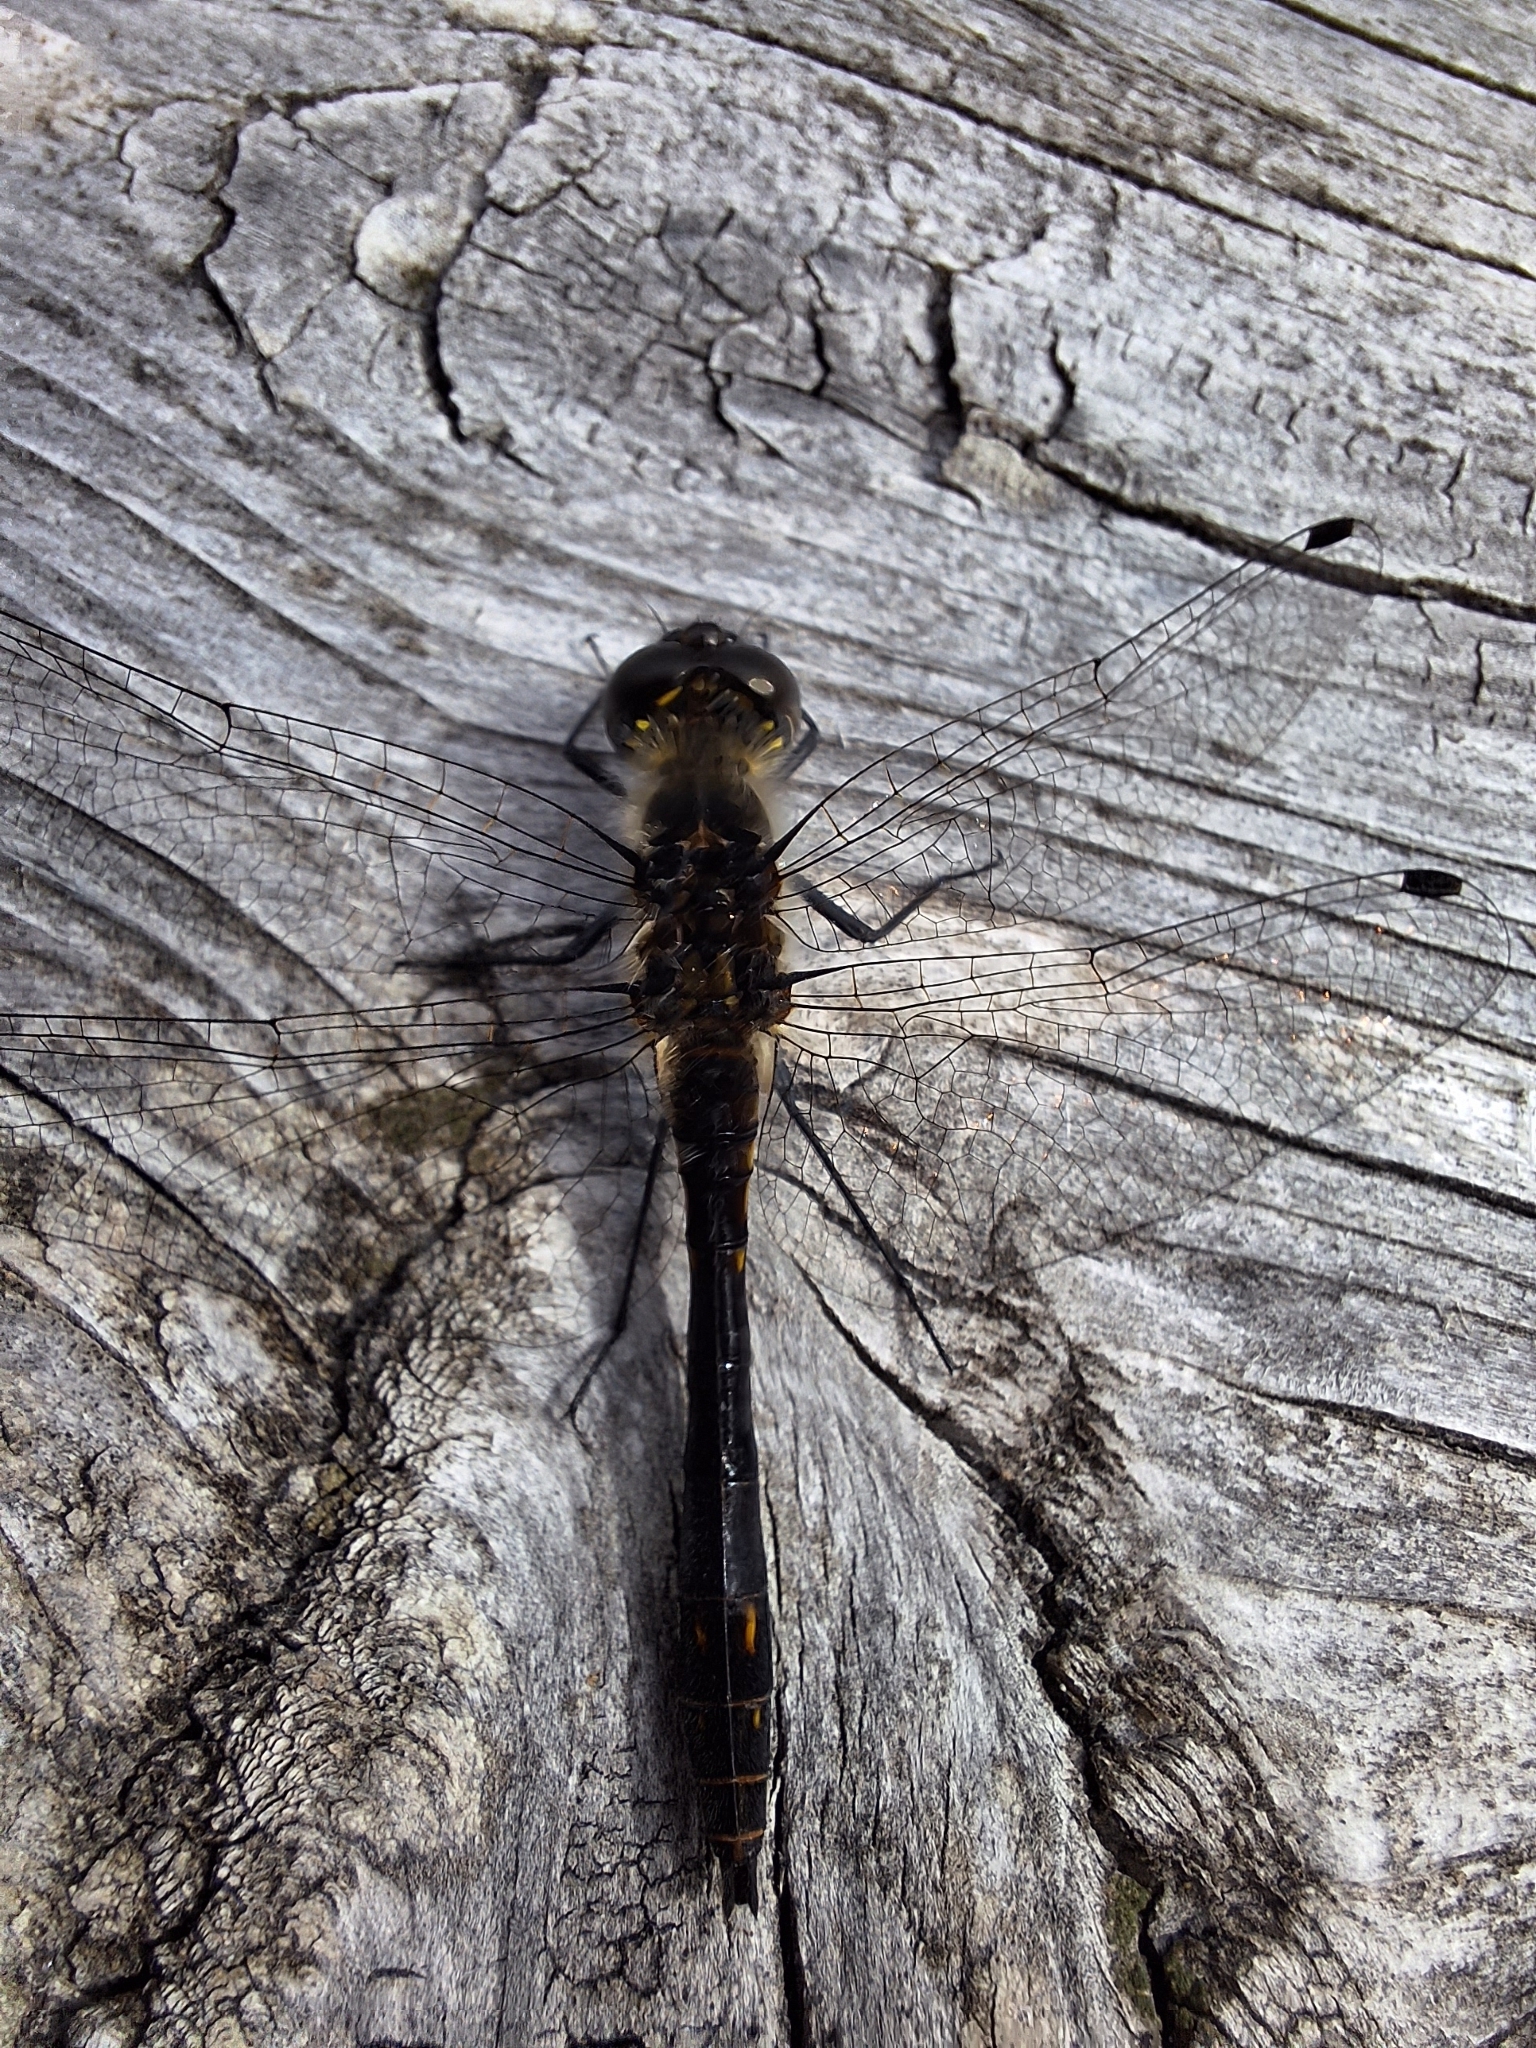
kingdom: Animalia
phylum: Arthropoda
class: Insecta
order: Odonata
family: Libellulidae
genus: Sympetrum
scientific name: Sympetrum danae
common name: Black darter
